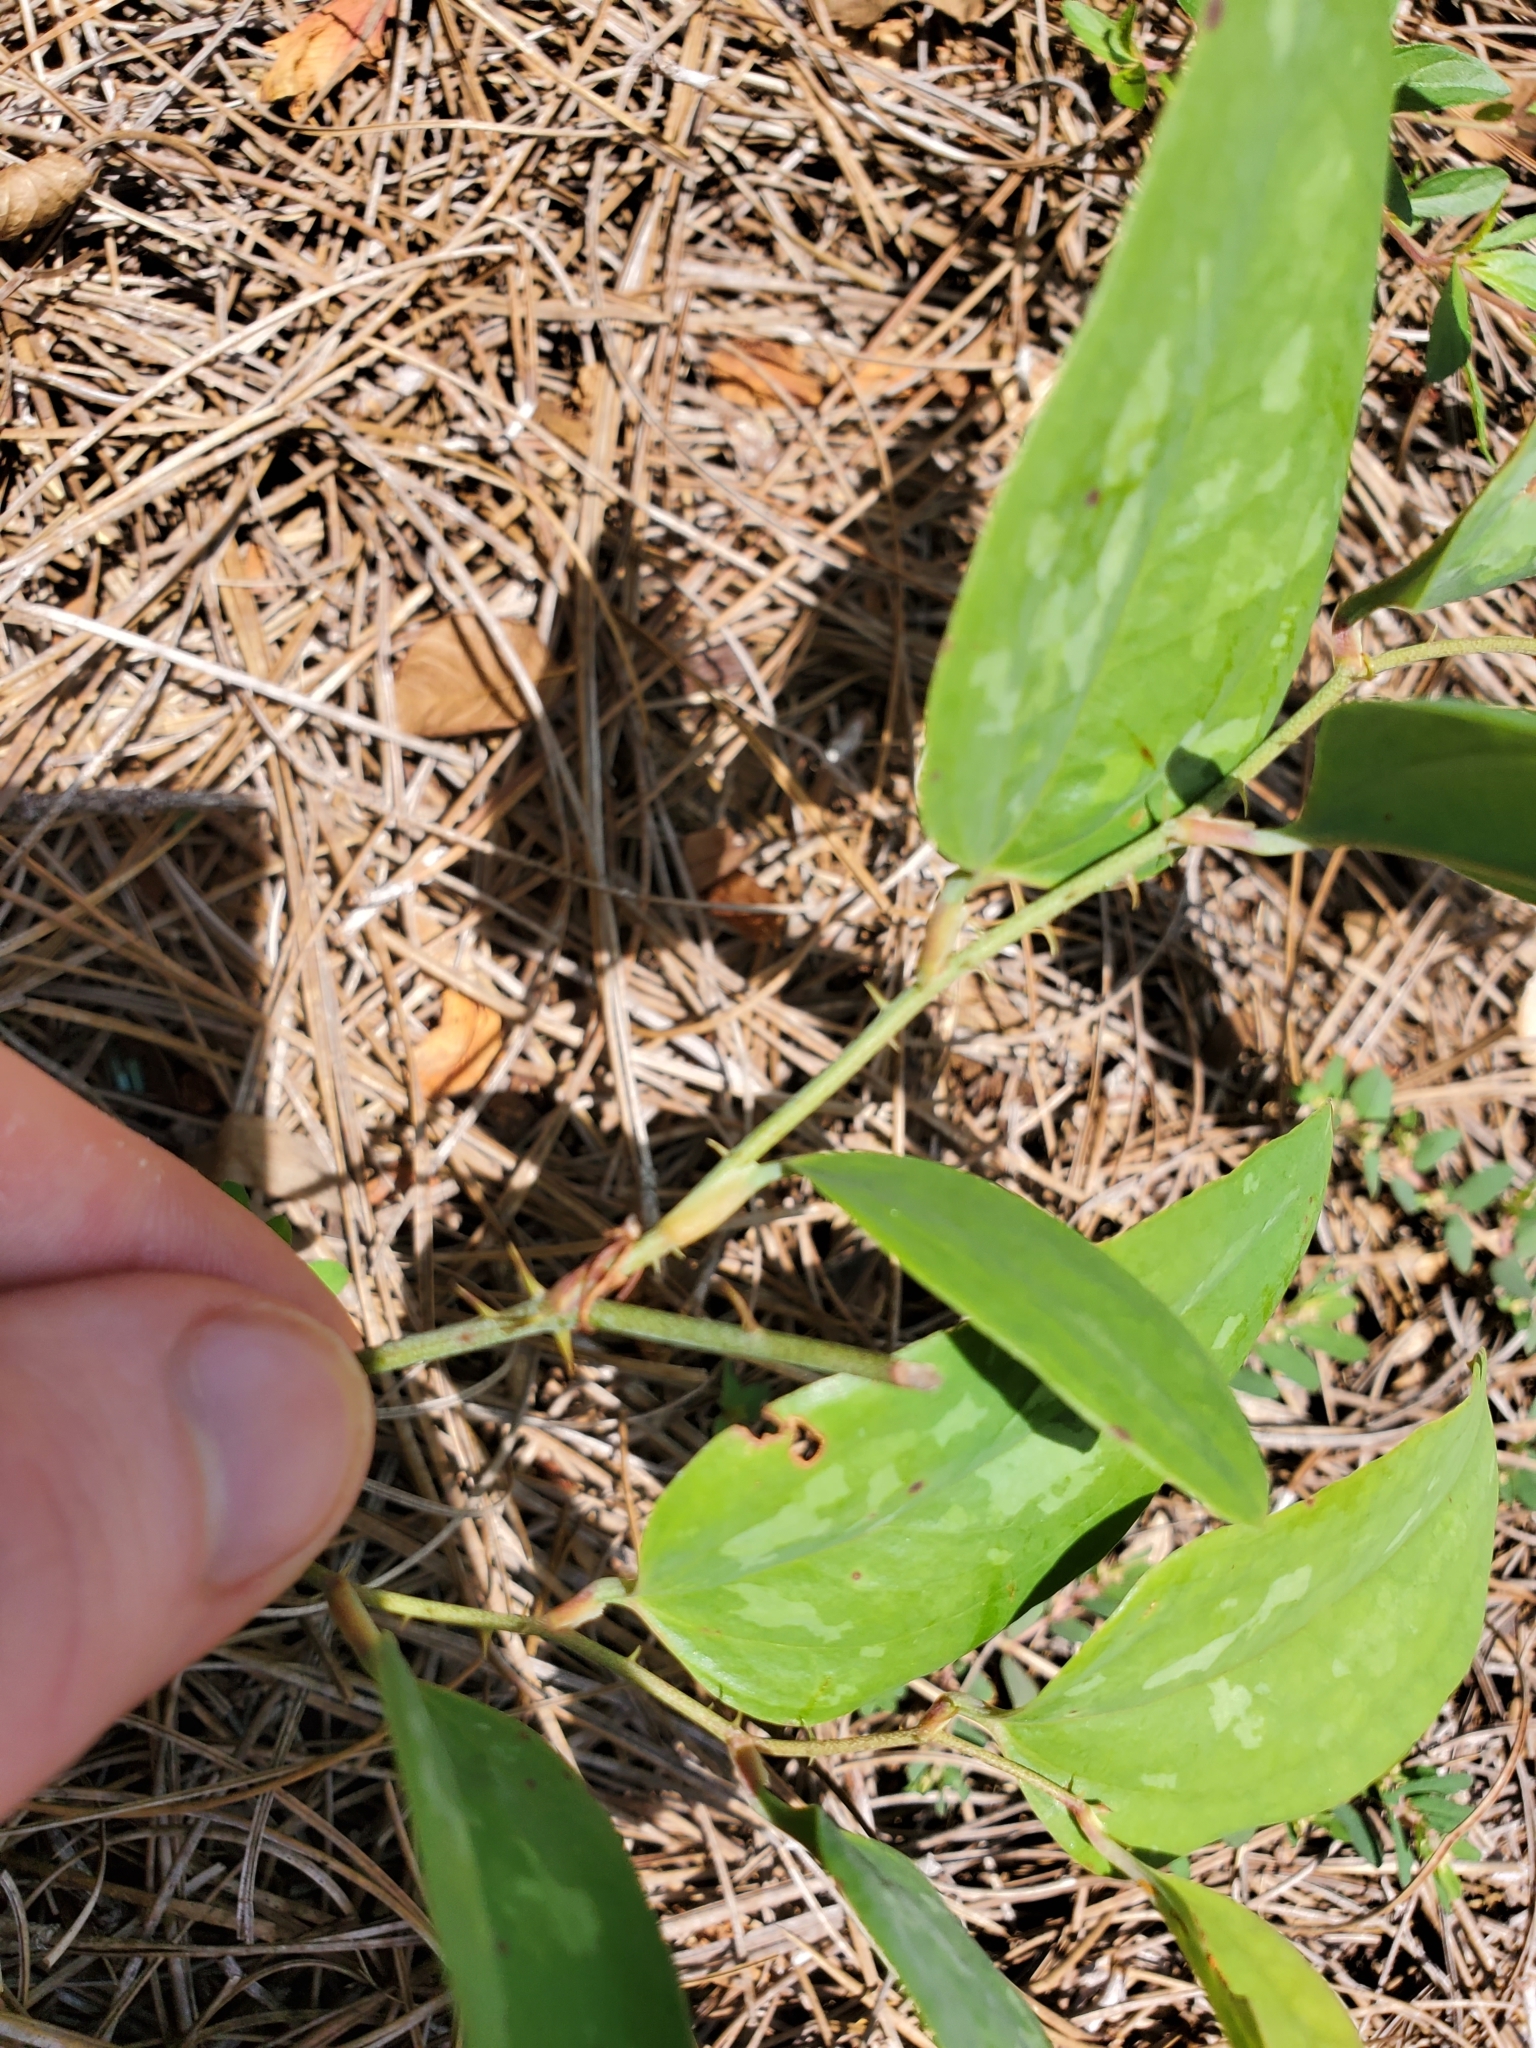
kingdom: Plantae
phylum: Tracheophyta
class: Liliopsida
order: Liliales
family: Smilacaceae
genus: Smilax
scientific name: Smilax glauca
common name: Cat greenbrier
